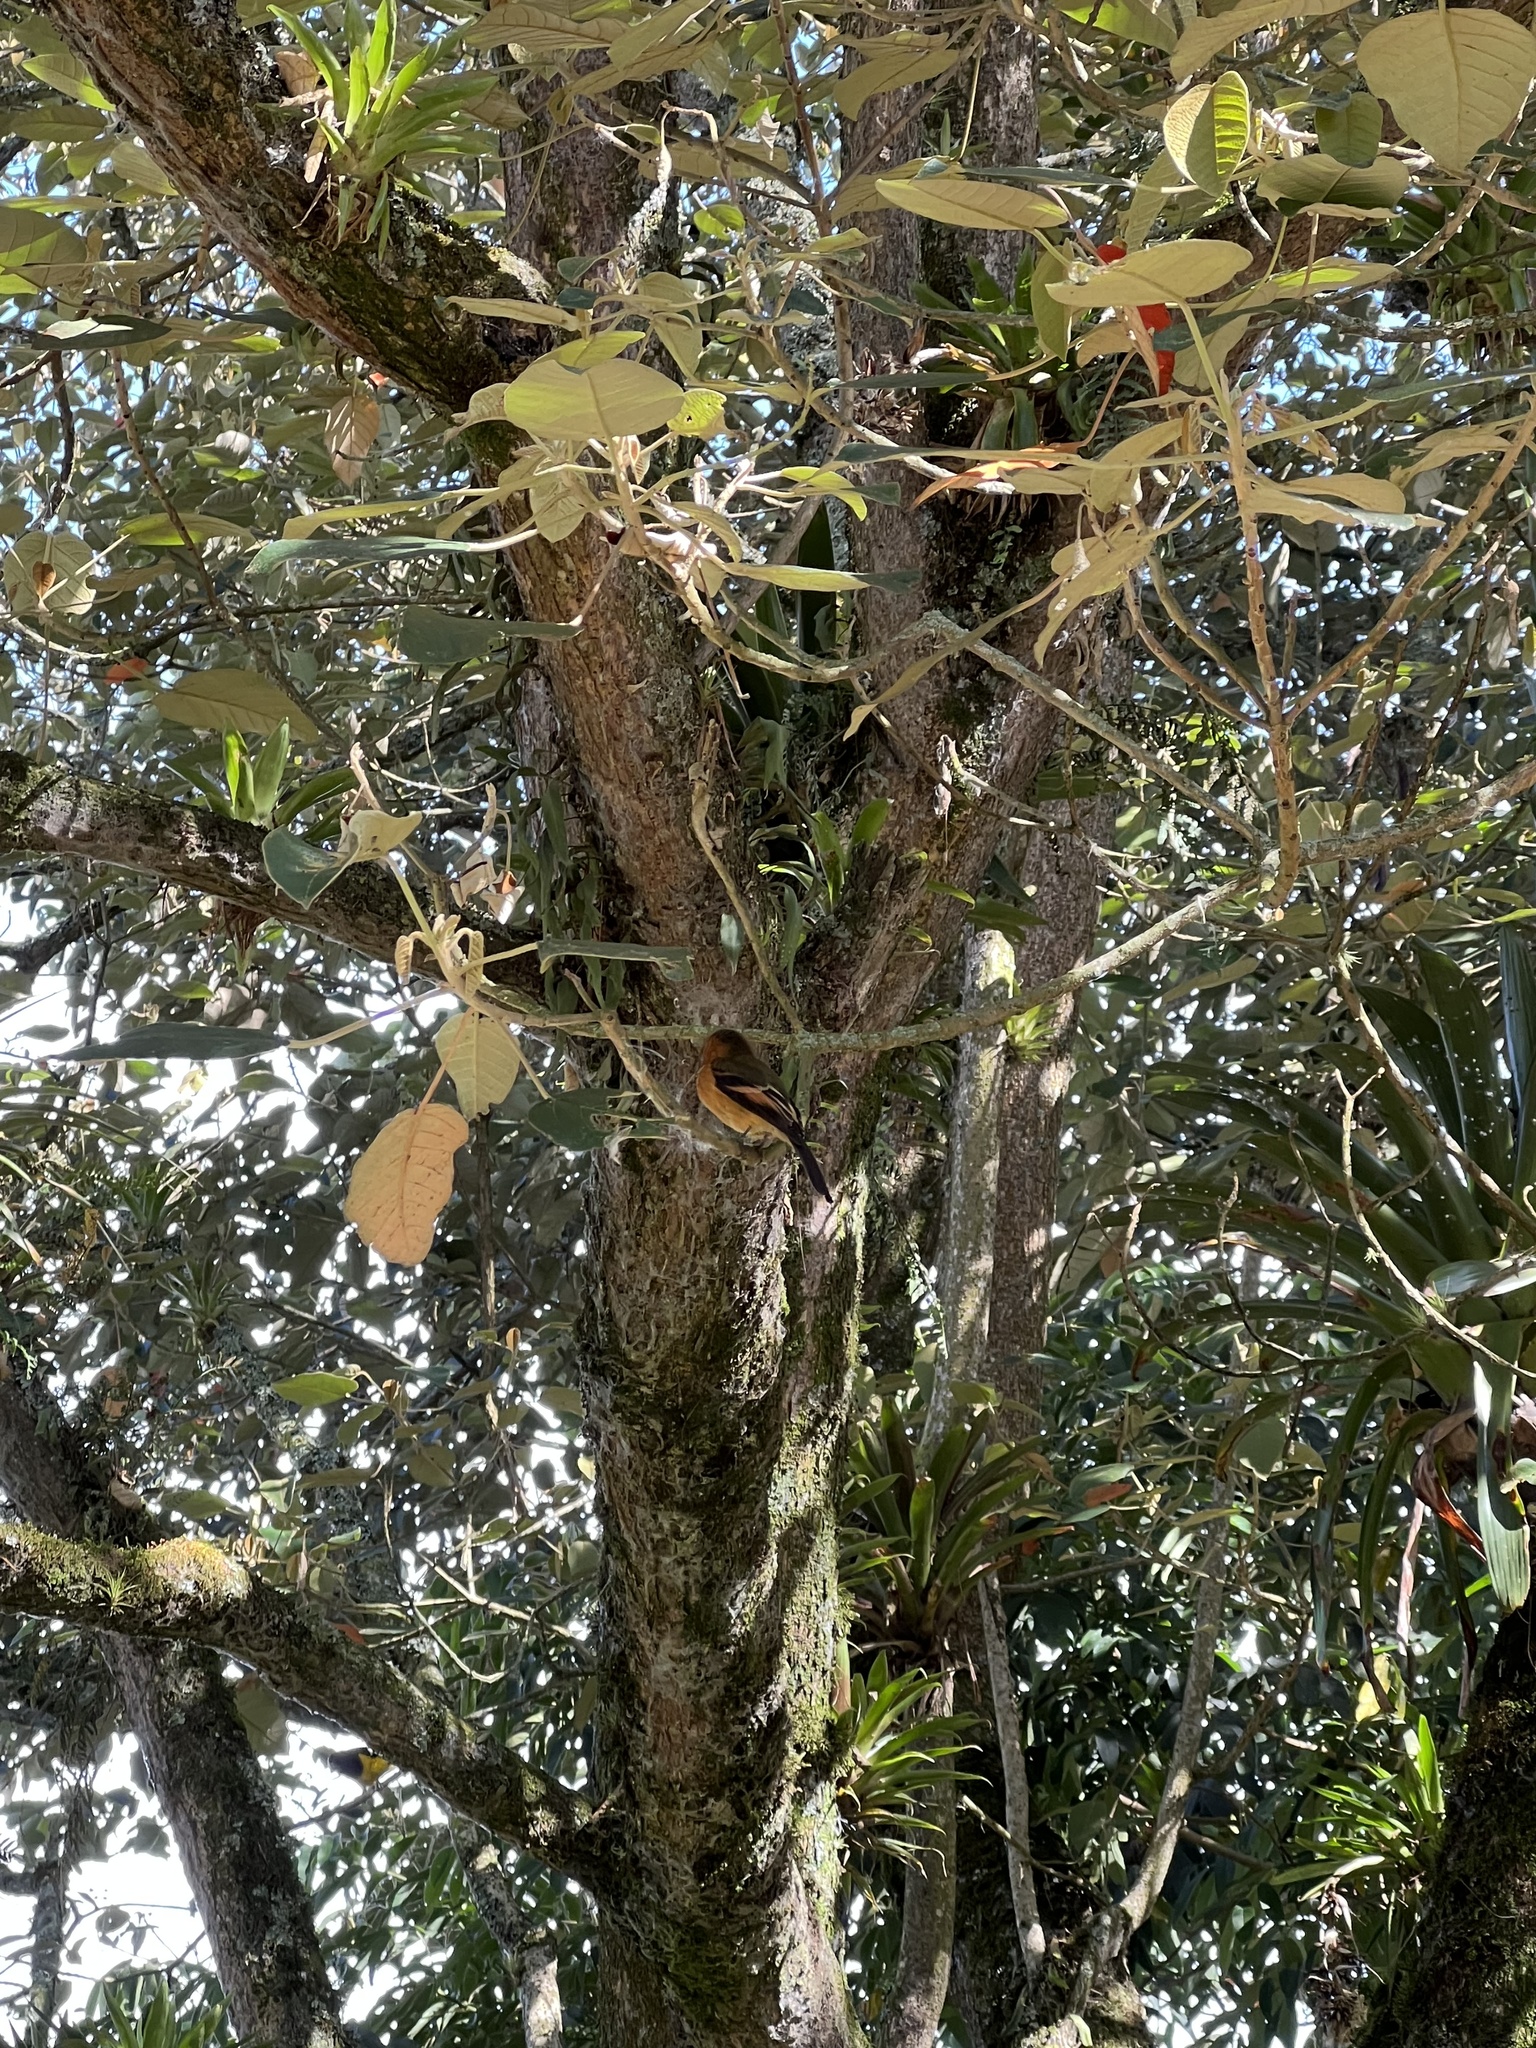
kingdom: Animalia
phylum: Chordata
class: Aves
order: Passeriformes
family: Tyrannidae
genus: Pyrrhomyias
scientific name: Pyrrhomyias cinnamomeus
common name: Cinnamon flycatcher
